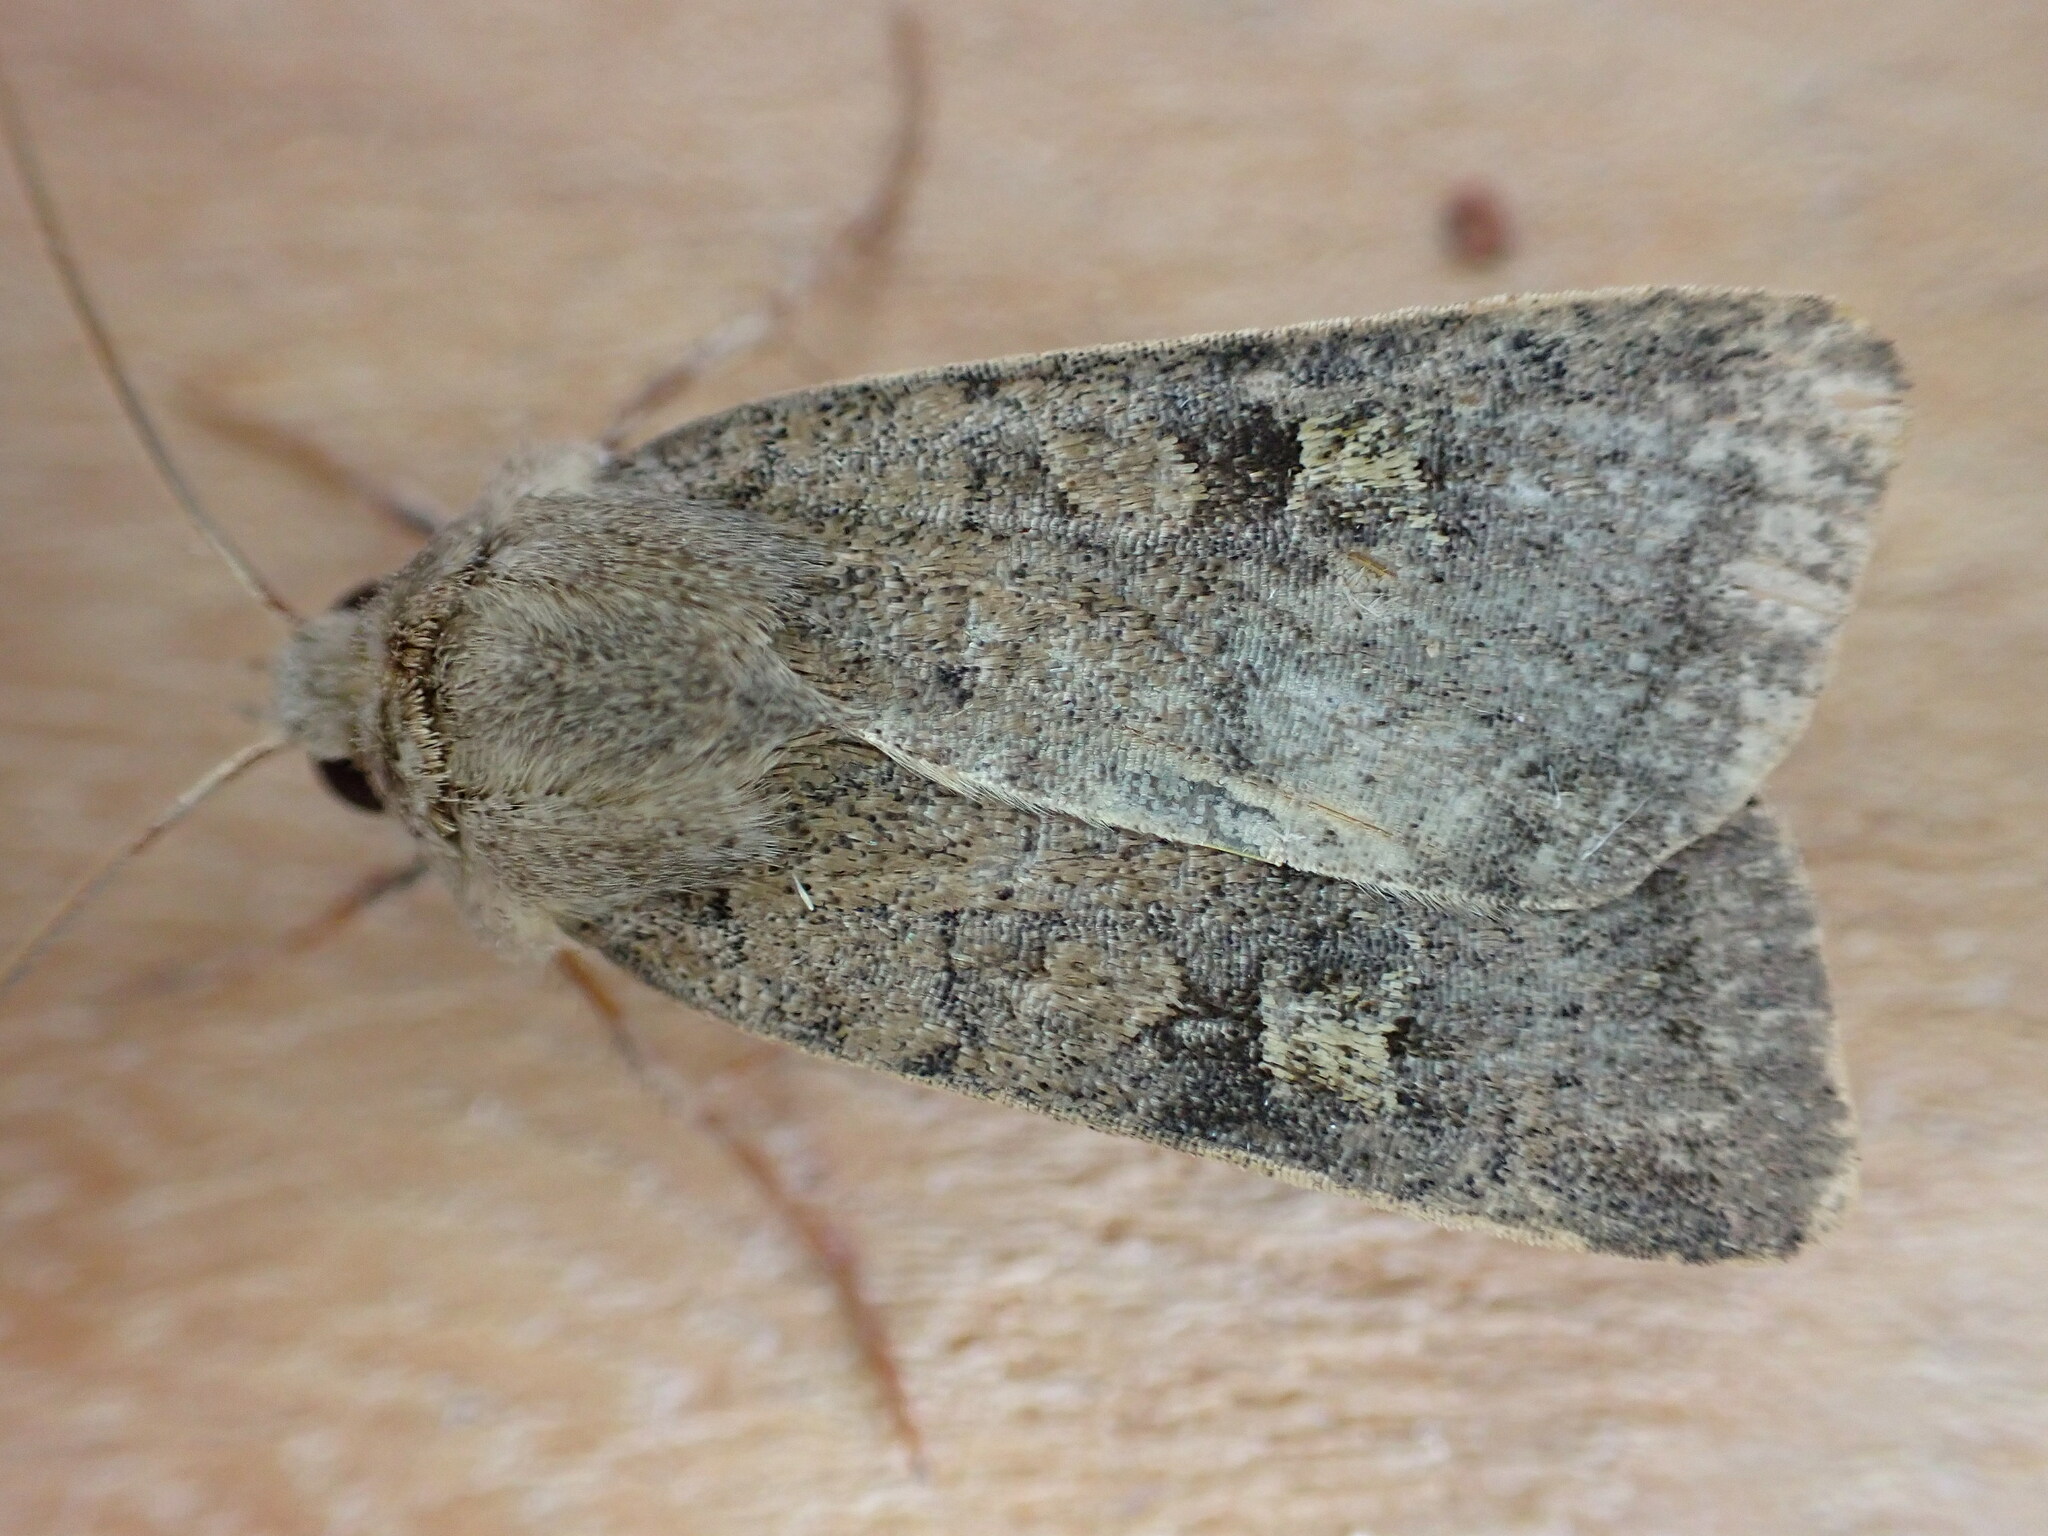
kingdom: Animalia
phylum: Arthropoda
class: Insecta
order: Lepidoptera
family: Noctuidae
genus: Xestia
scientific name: Xestia xanthographa
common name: Square-spot rustic
